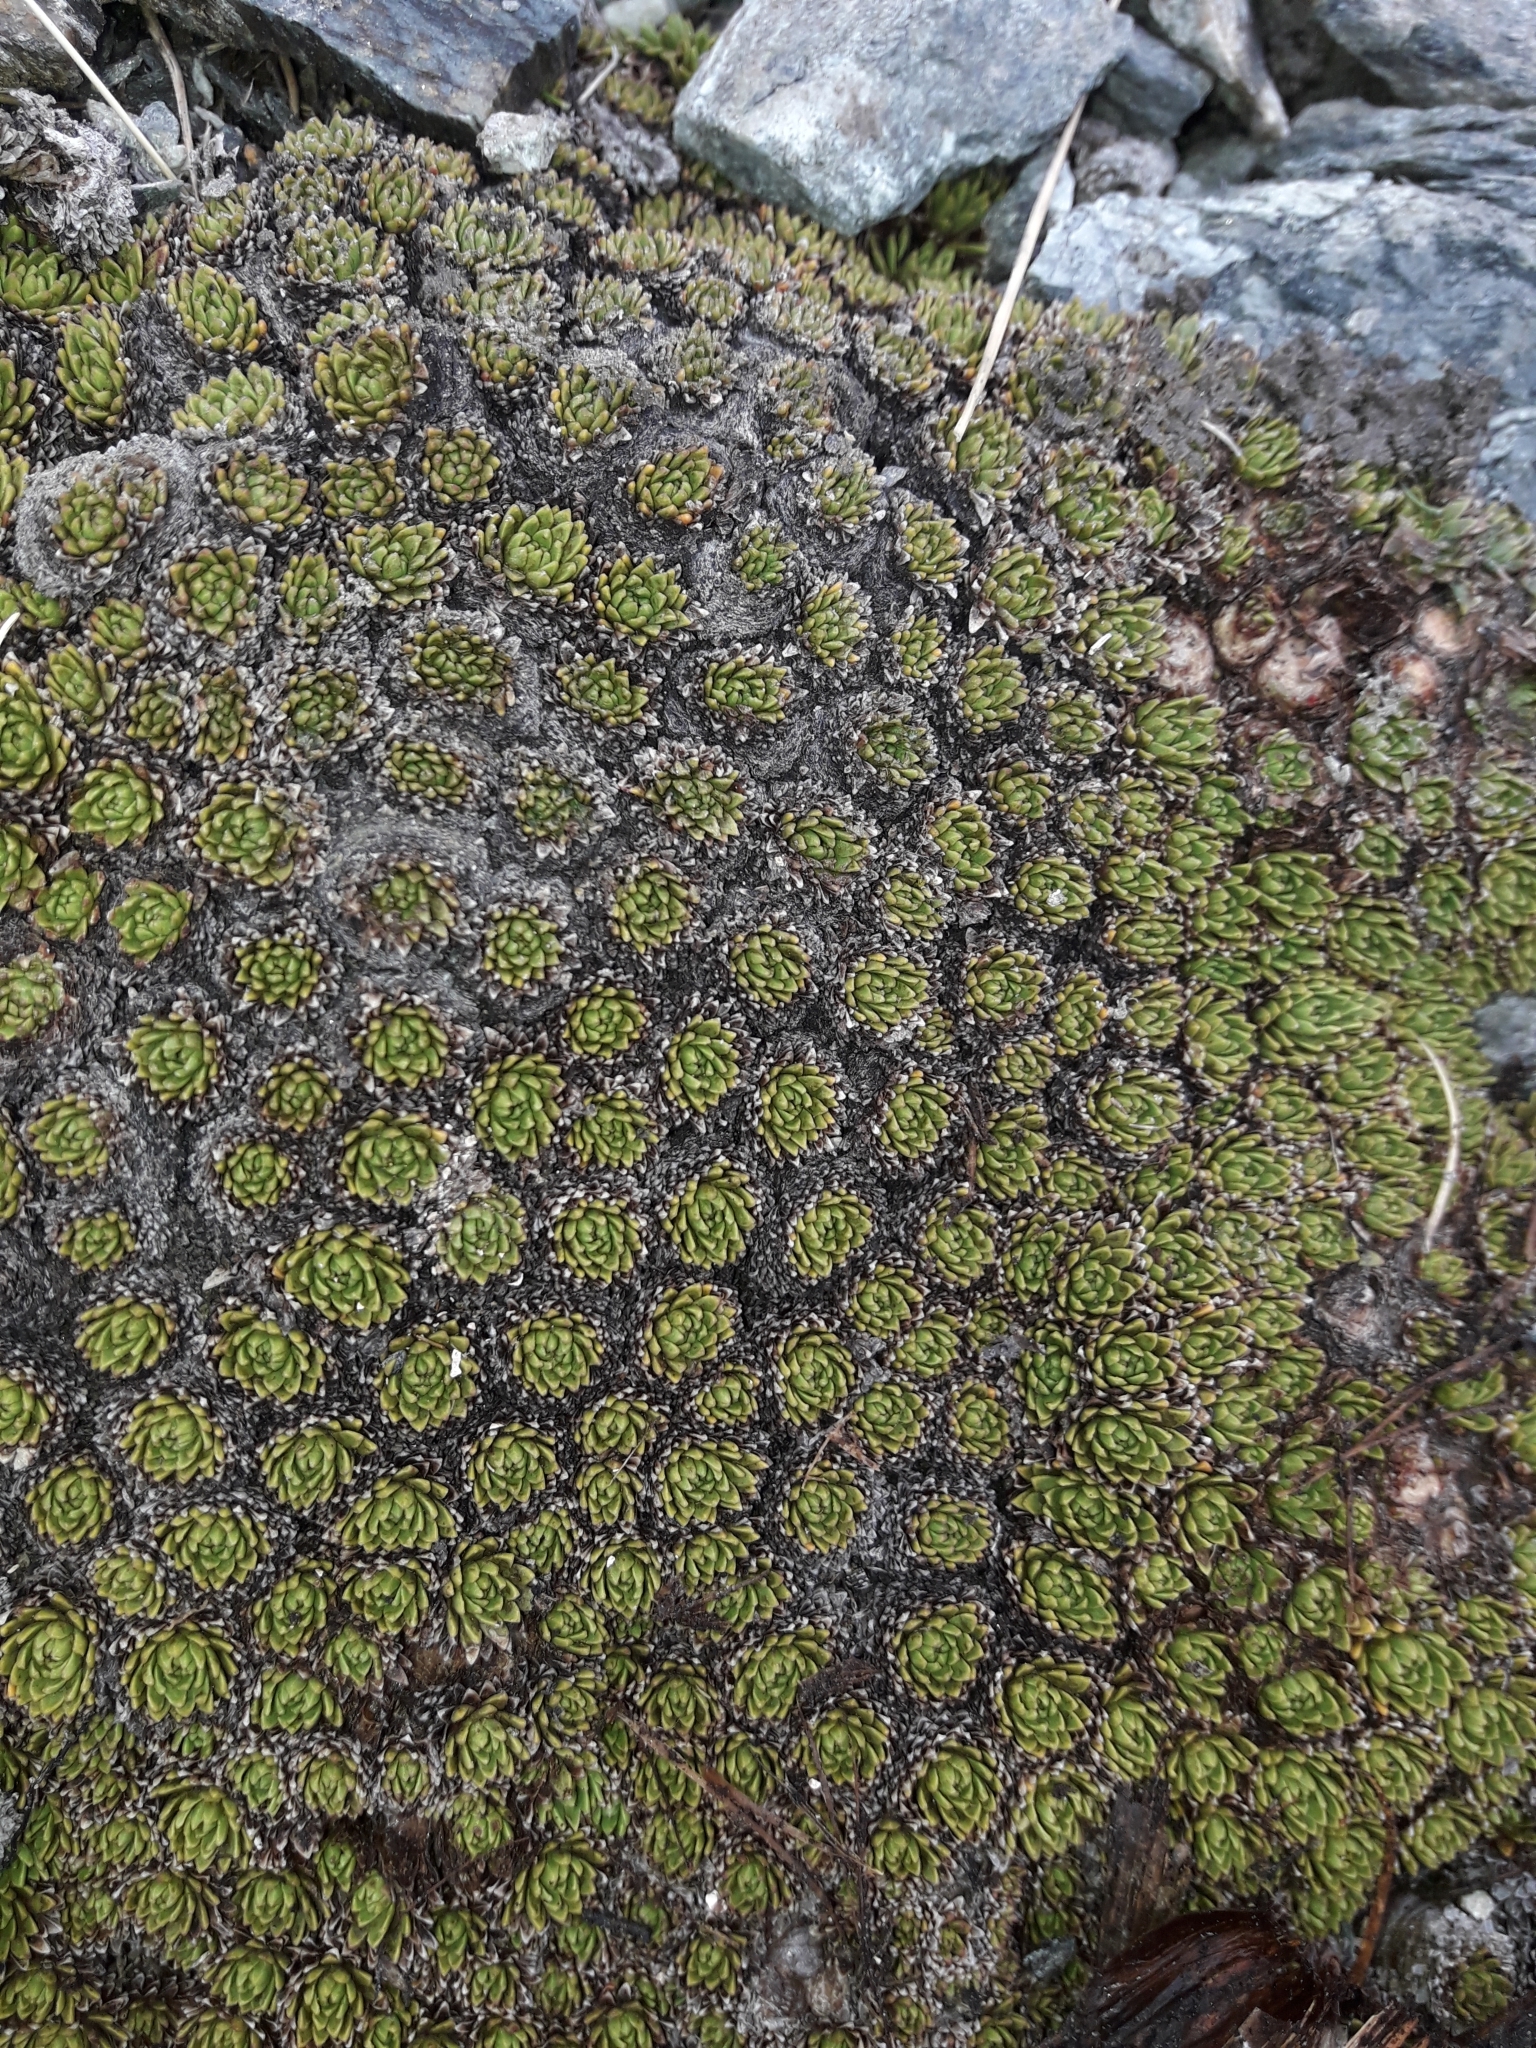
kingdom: Plantae
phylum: Tracheophyta
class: Magnoliopsida
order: Caryophyllales
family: Montiaceae
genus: Hectorella
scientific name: Hectorella caespitosa
